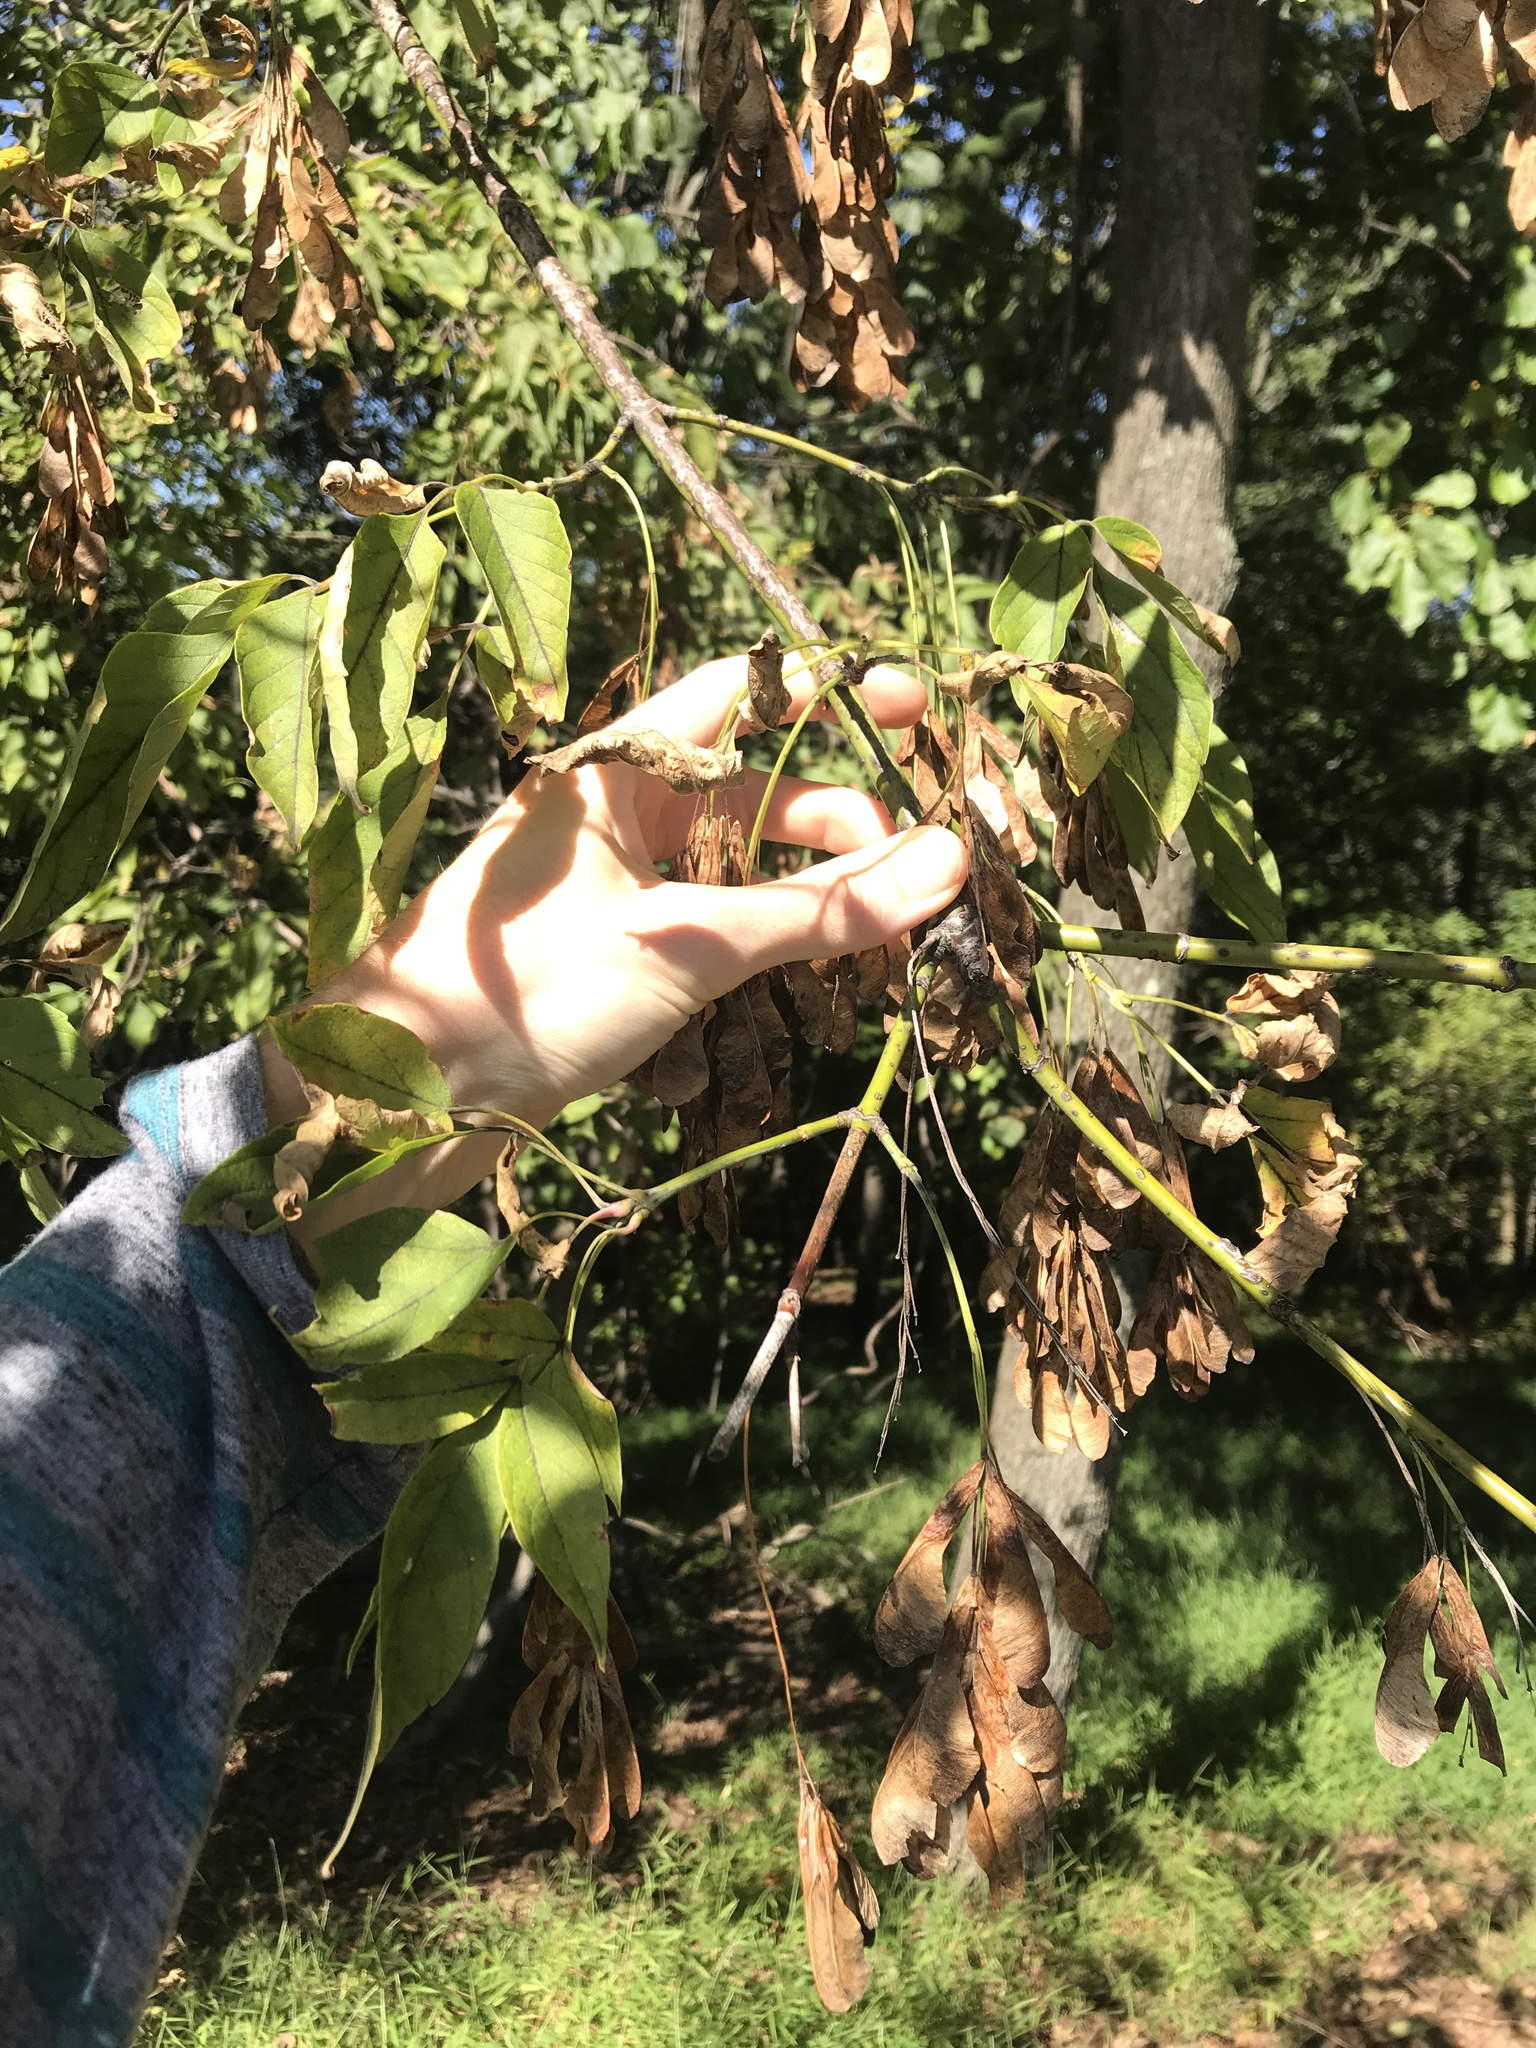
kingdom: Plantae
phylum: Tracheophyta
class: Magnoliopsida
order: Sapindales
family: Sapindaceae
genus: Acer
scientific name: Acer negundo
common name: Ashleaf maple
